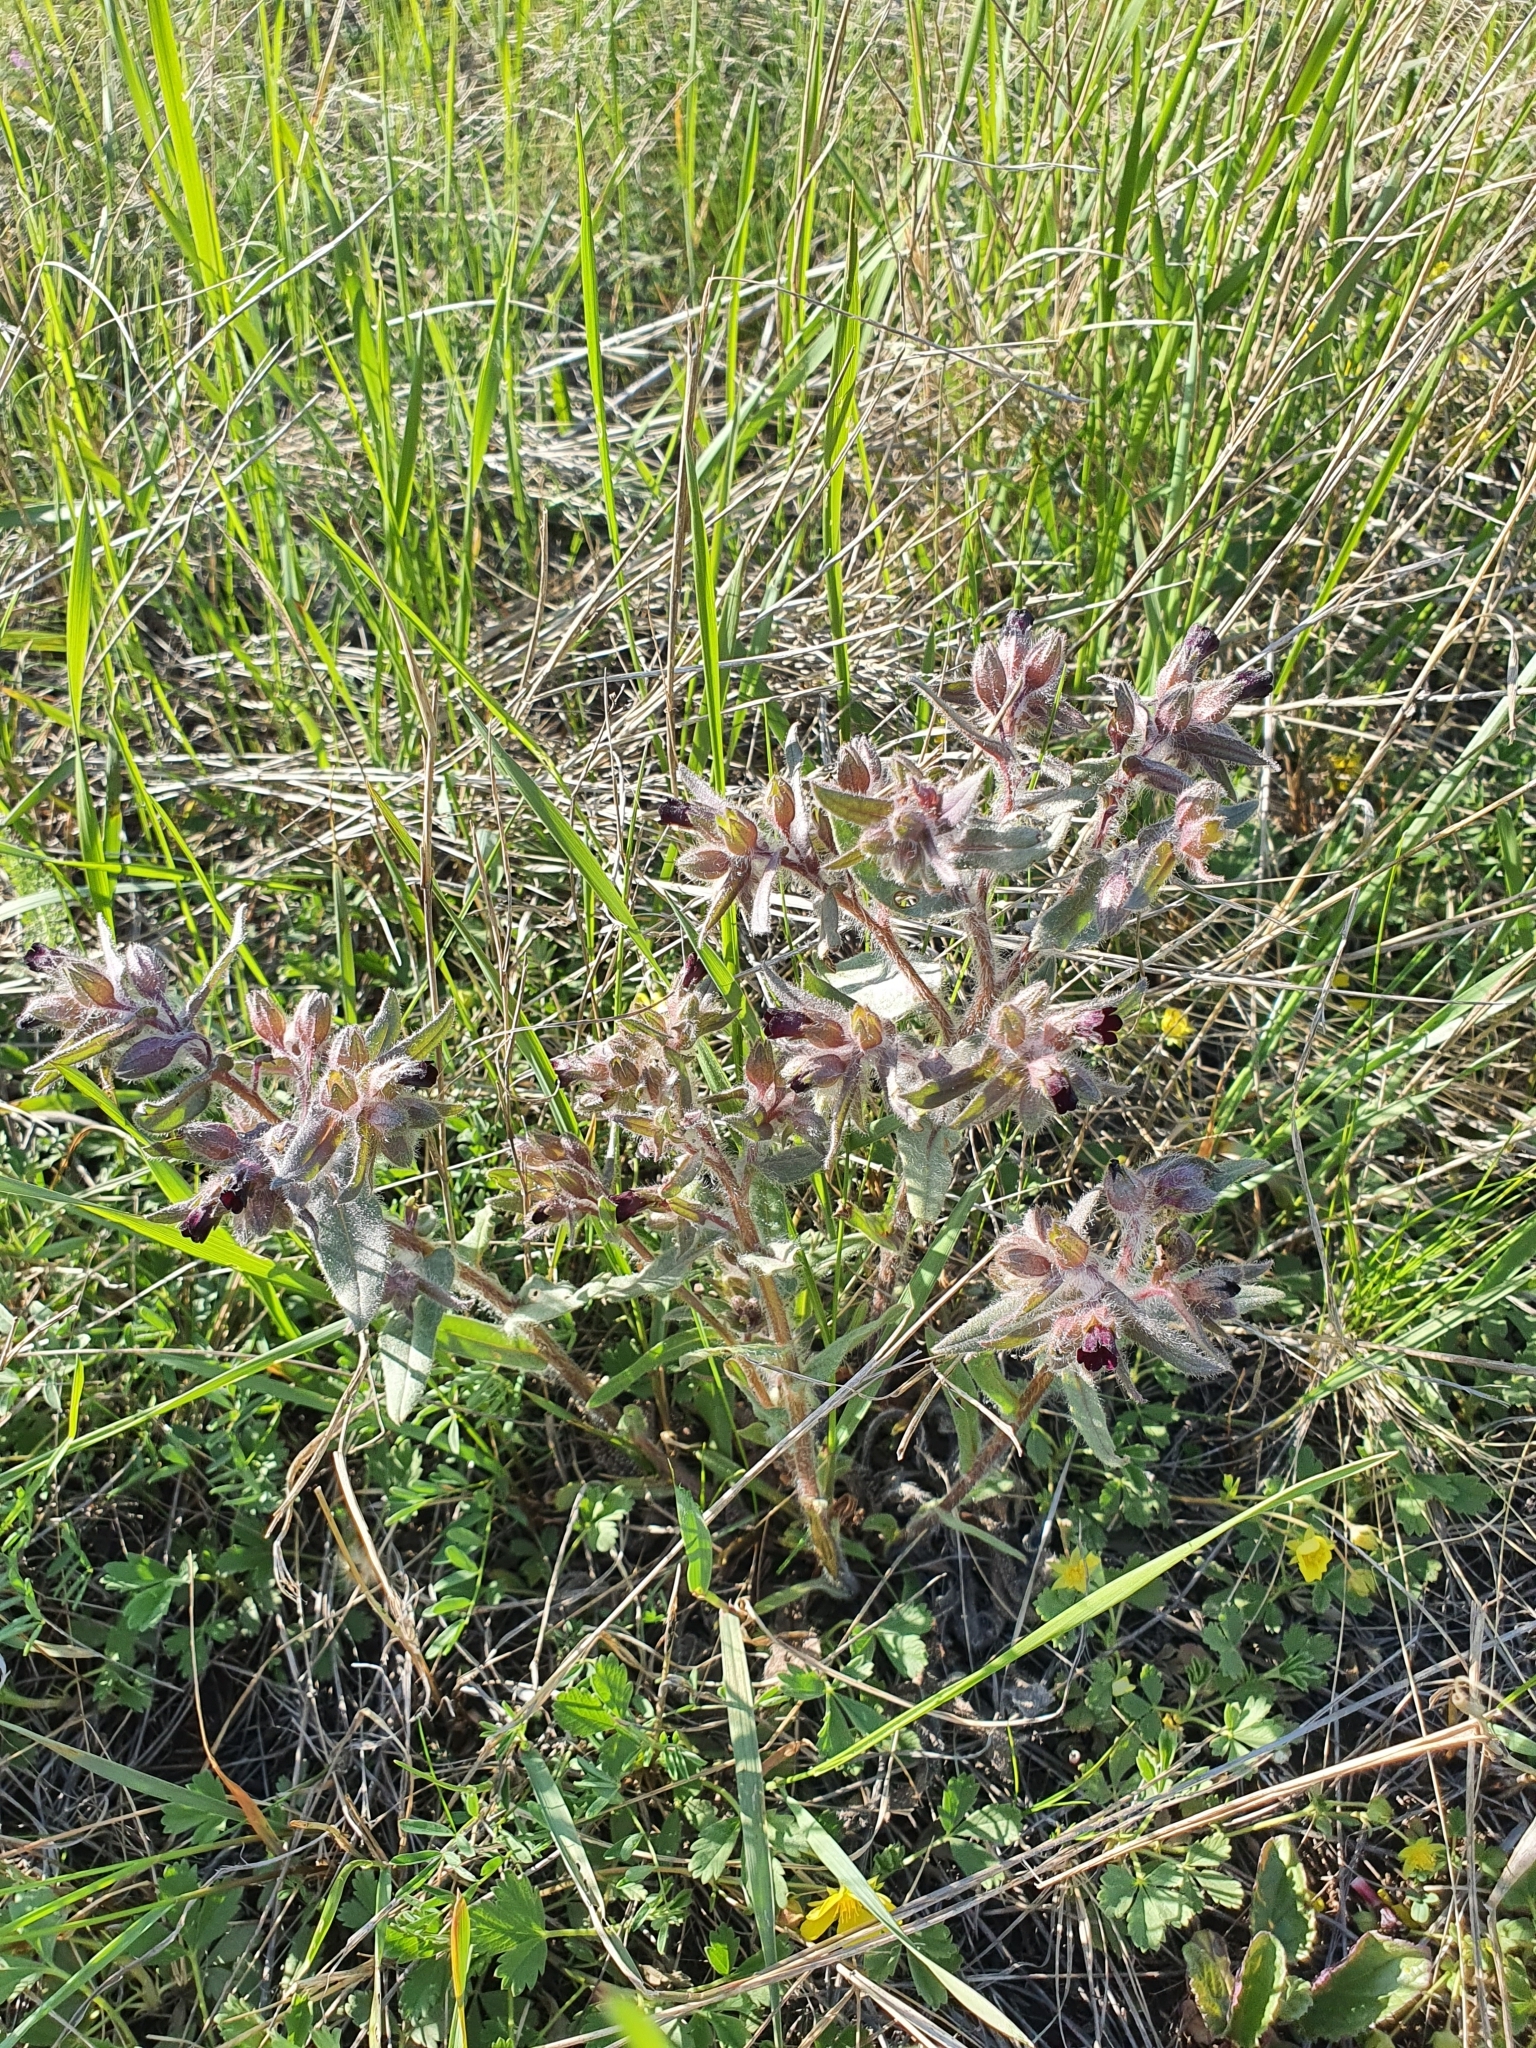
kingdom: Plantae
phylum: Tracheophyta
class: Magnoliopsida
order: Boraginales
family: Boraginaceae
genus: Nonea
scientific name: Nonea pulla
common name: Brown nonea
